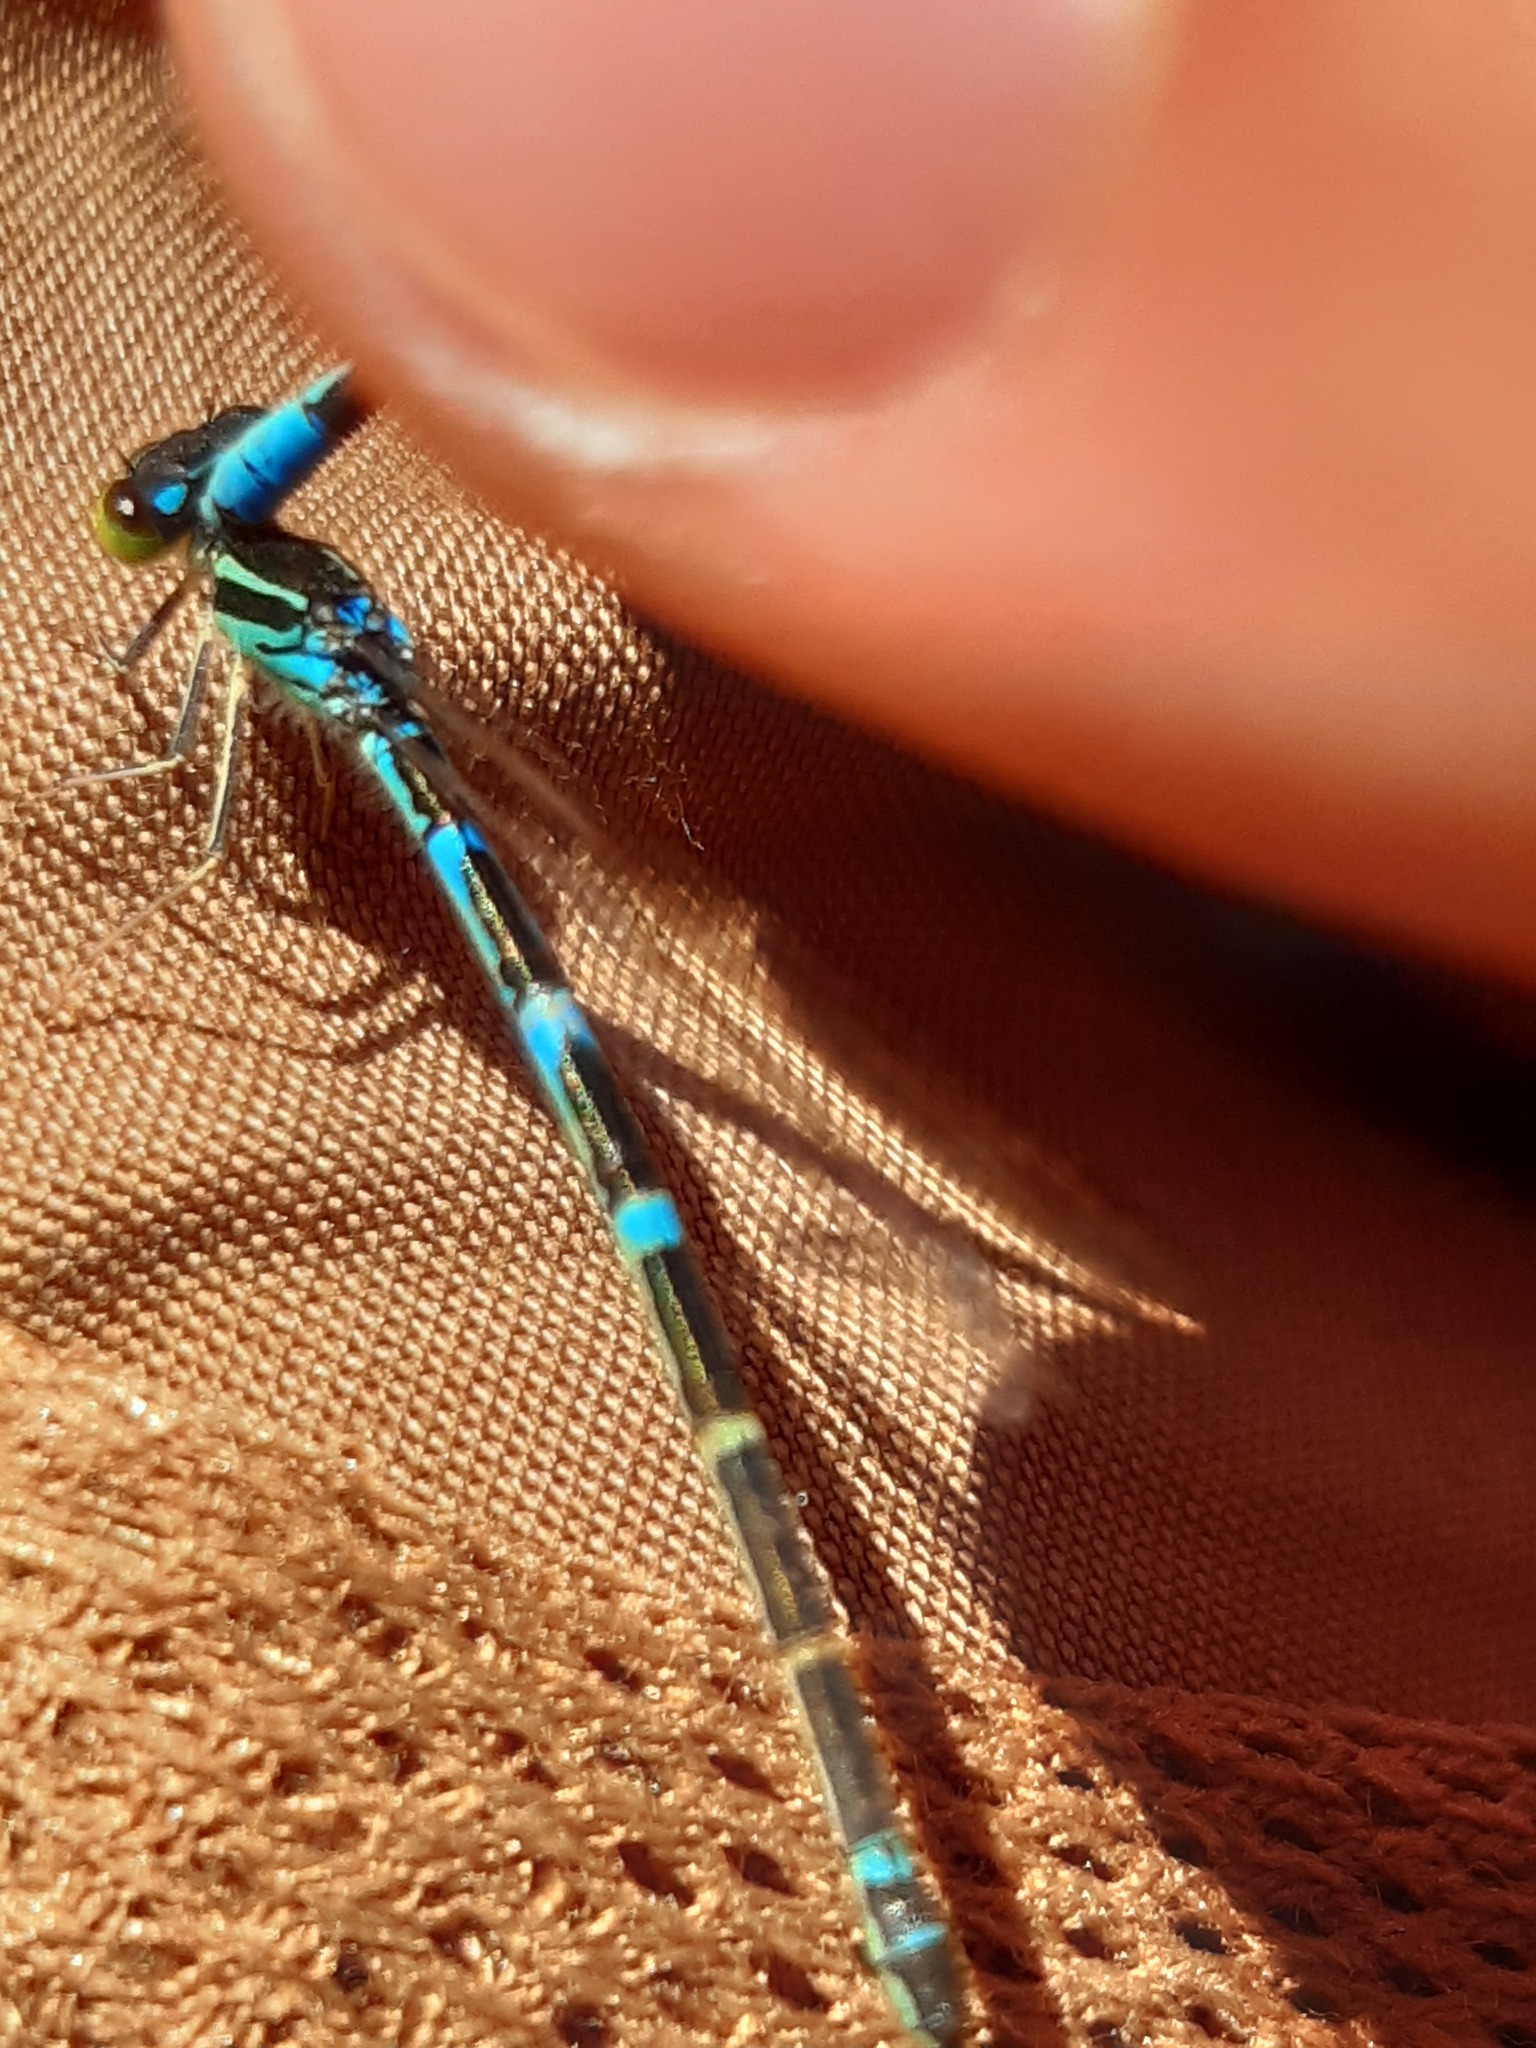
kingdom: Animalia
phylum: Arthropoda
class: Insecta
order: Odonata
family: Coenagrionidae
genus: Coenagrion
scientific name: Coenagrion scitulum
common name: Dainty bluet
